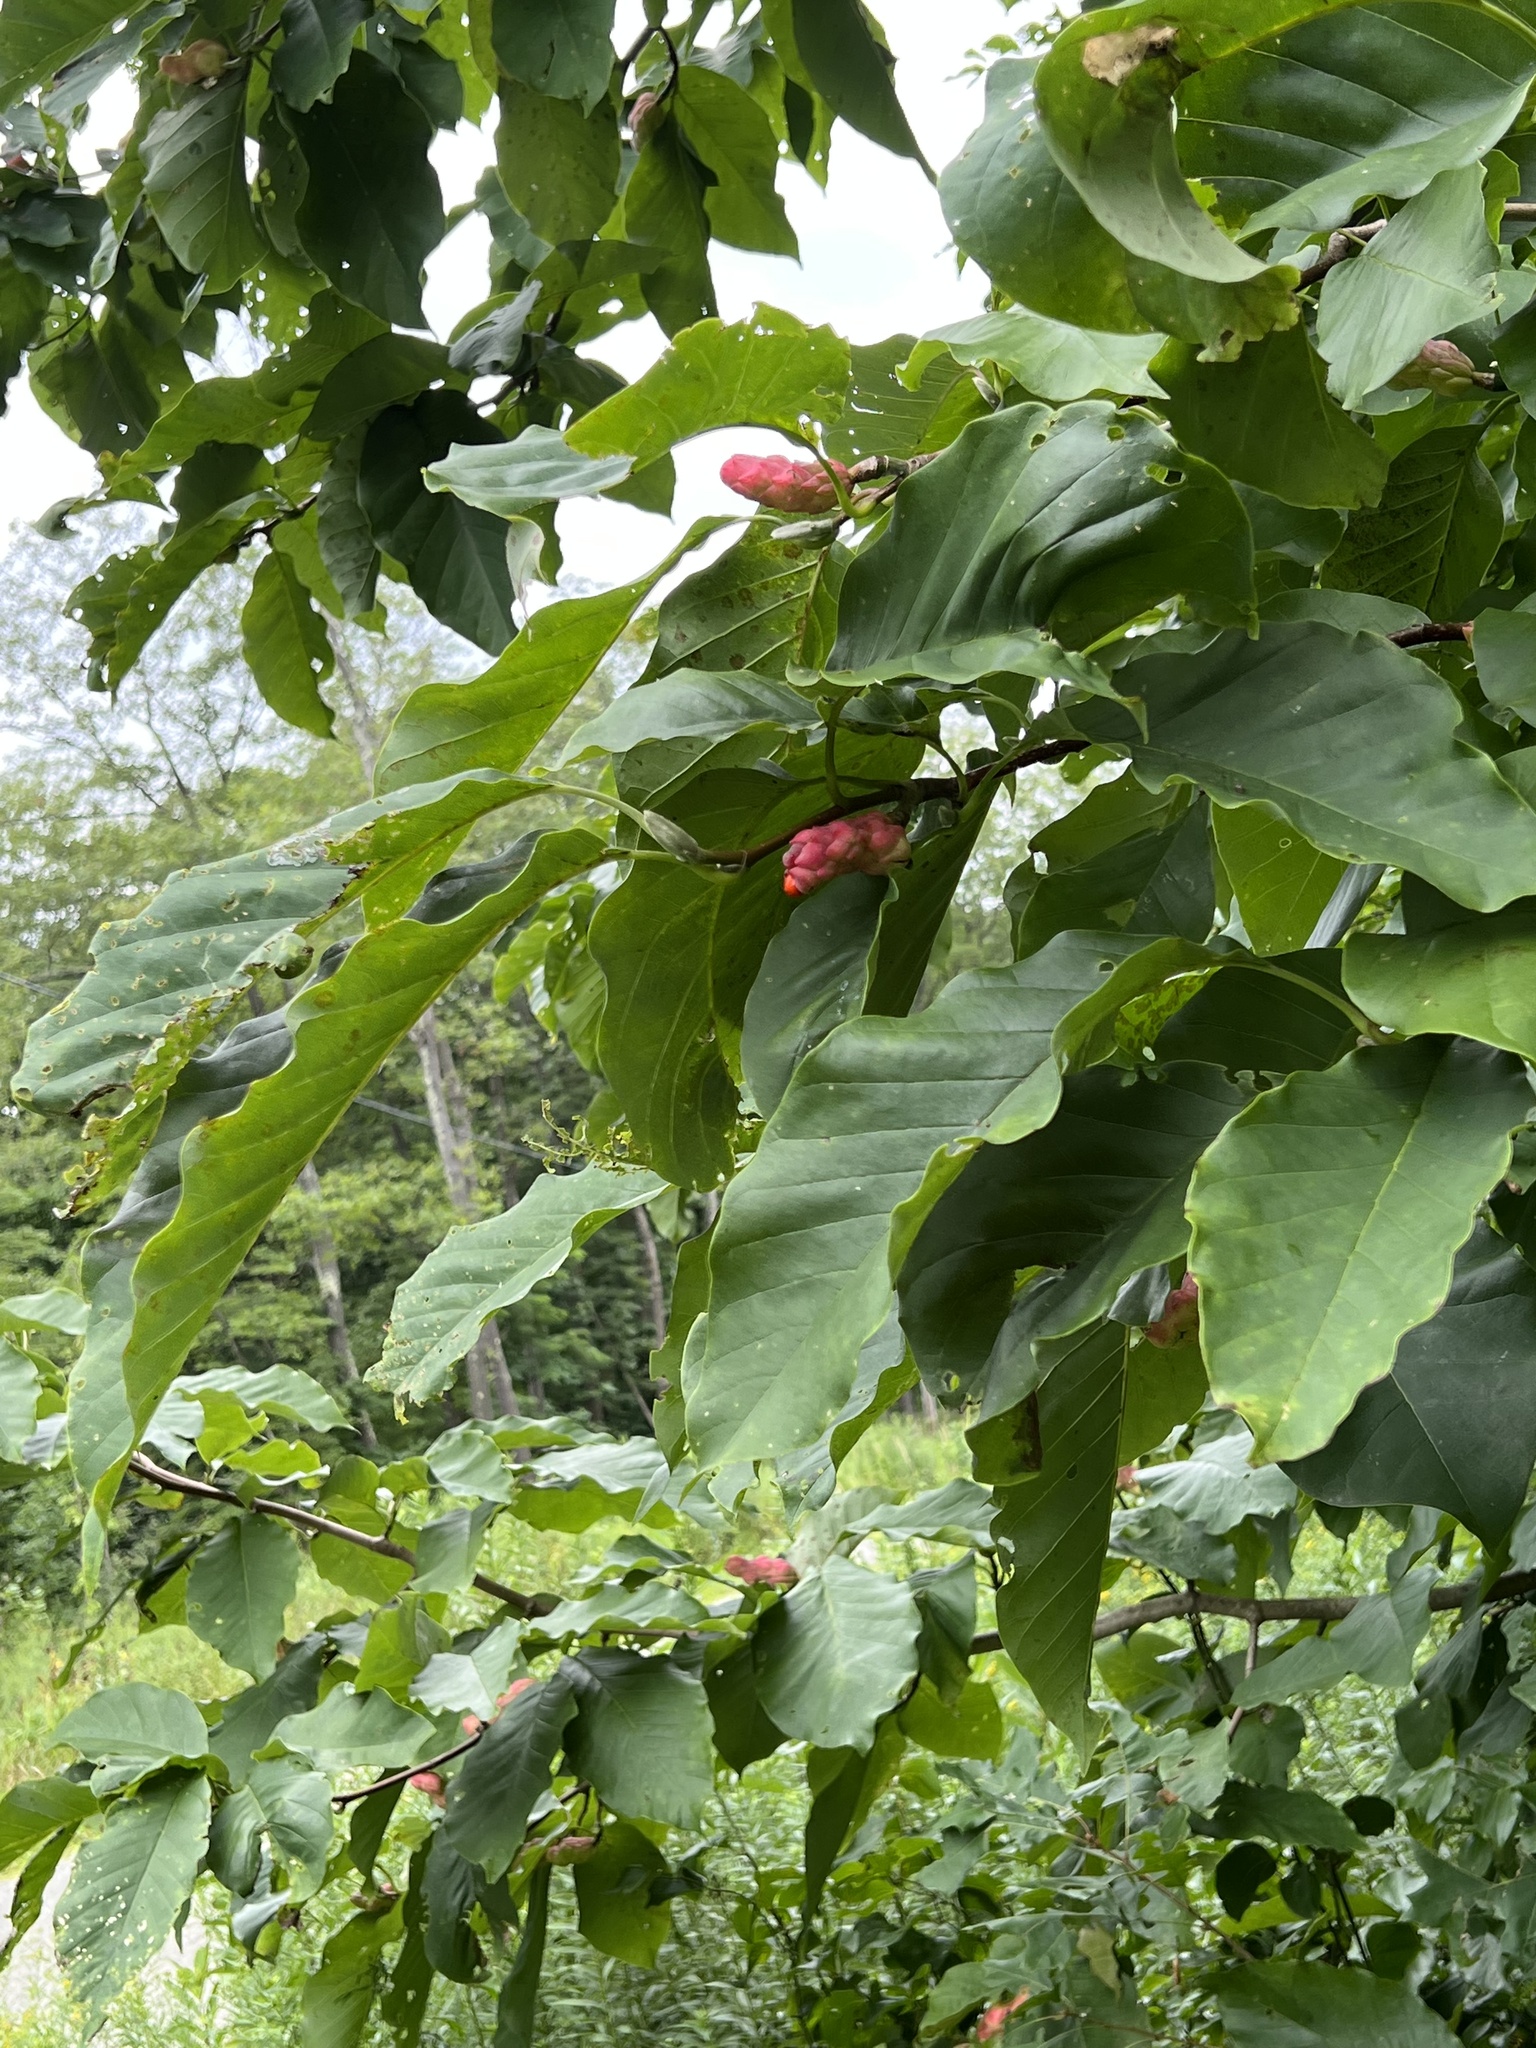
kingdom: Plantae
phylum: Tracheophyta
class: Magnoliopsida
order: Magnoliales
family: Magnoliaceae
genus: Magnolia
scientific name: Magnolia acuminata
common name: Cucumber magnolia
